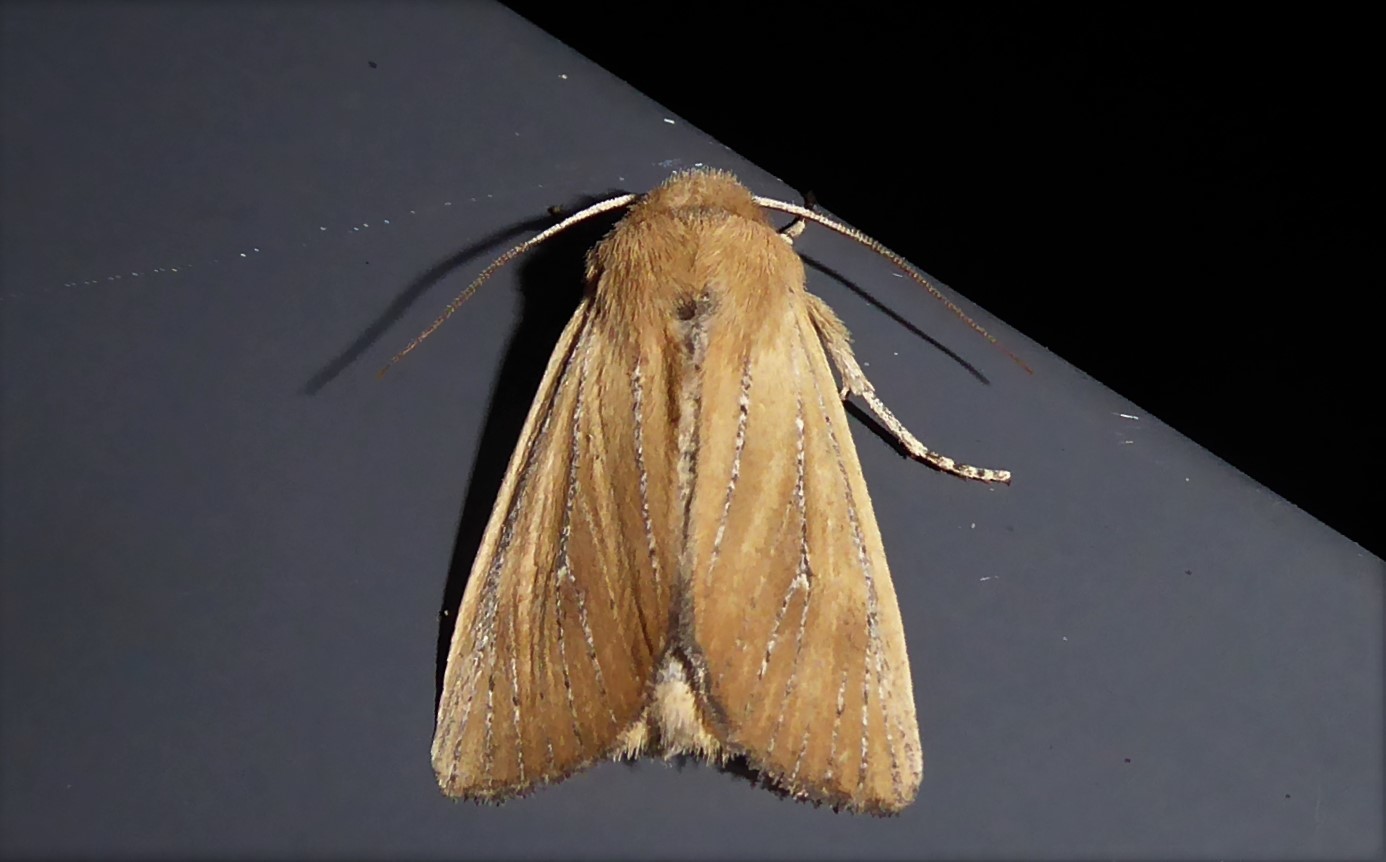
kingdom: Animalia
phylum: Arthropoda
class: Insecta
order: Lepidoptera
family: Noctuidae
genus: Ichneutica
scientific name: Ichneutica blenheimensis
